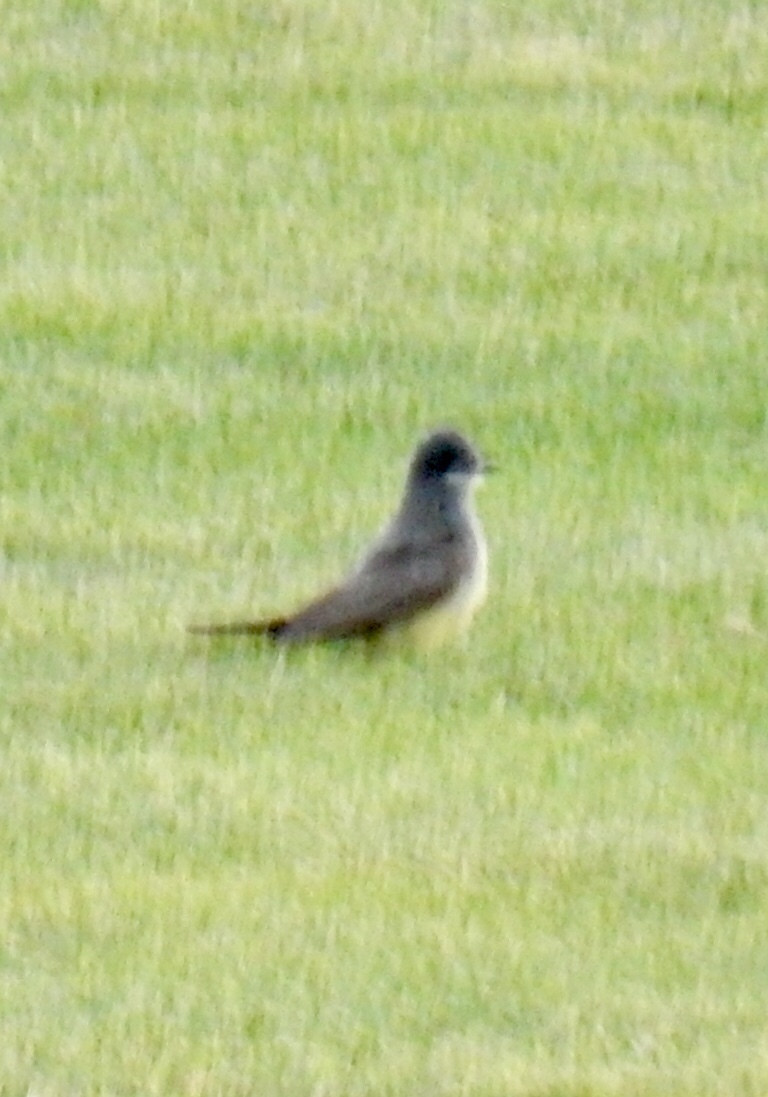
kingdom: Animalia
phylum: Chordata
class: Aves
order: Passeriformes
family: Tyrannidae
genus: Tyrannus
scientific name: Tyrannus vociferans
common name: Cassin's kingbird
